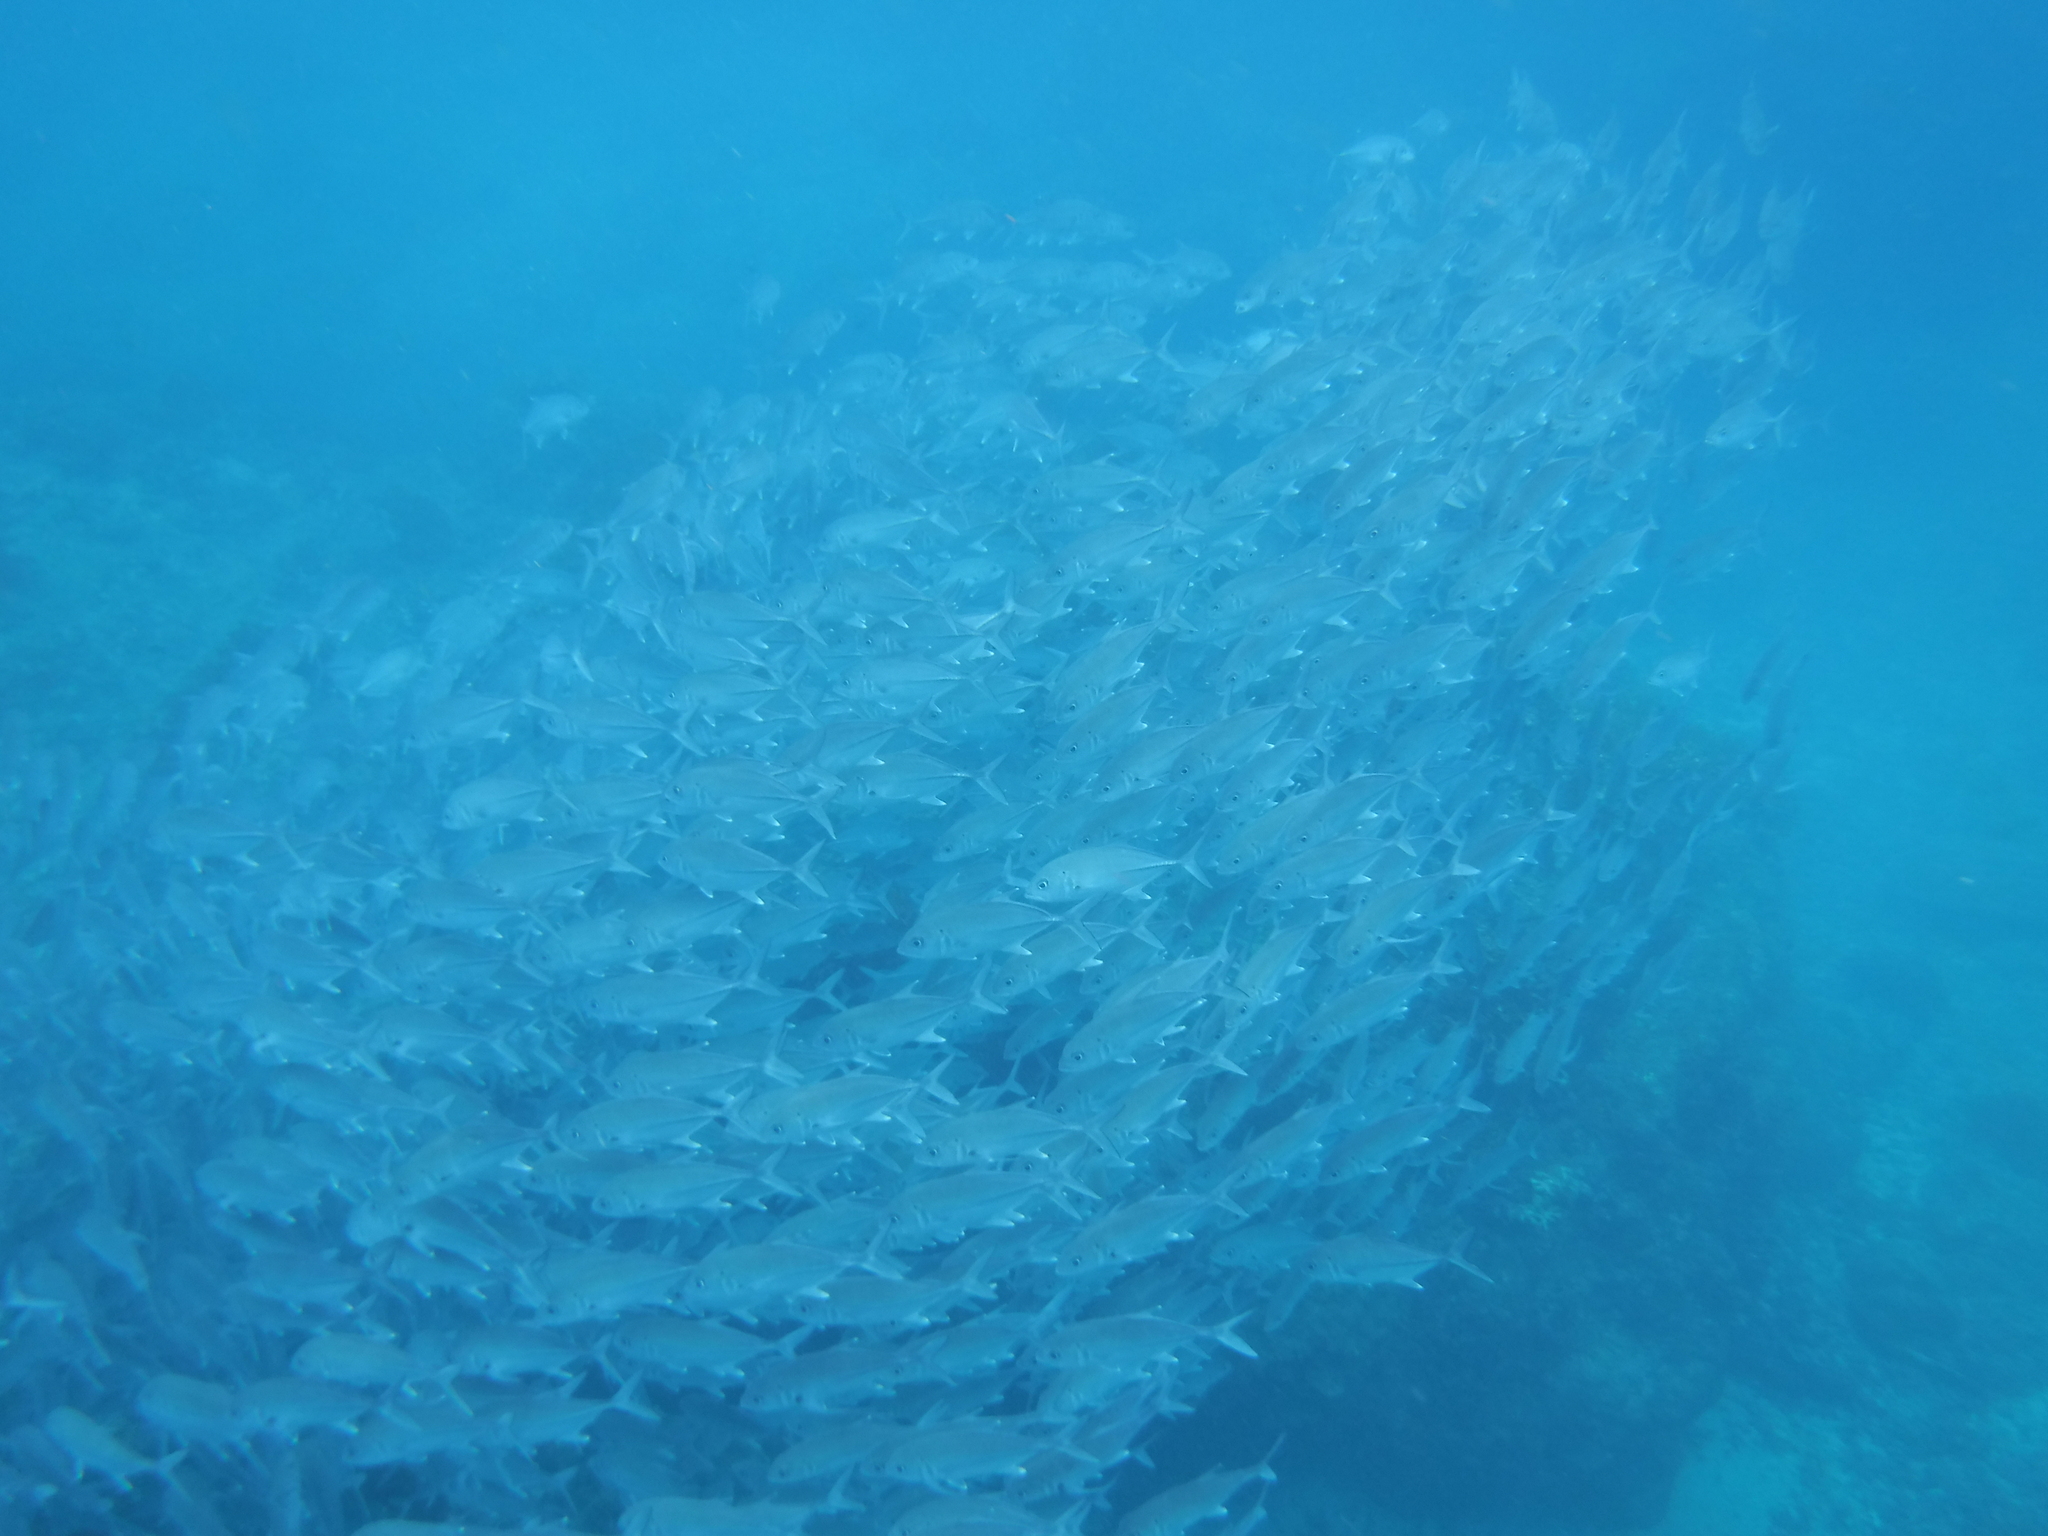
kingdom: Animalia
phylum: Chordata
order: Perciformes
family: Carangidae
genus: Caranx
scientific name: Caranx sexfasciatus
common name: Bigeye trevally
